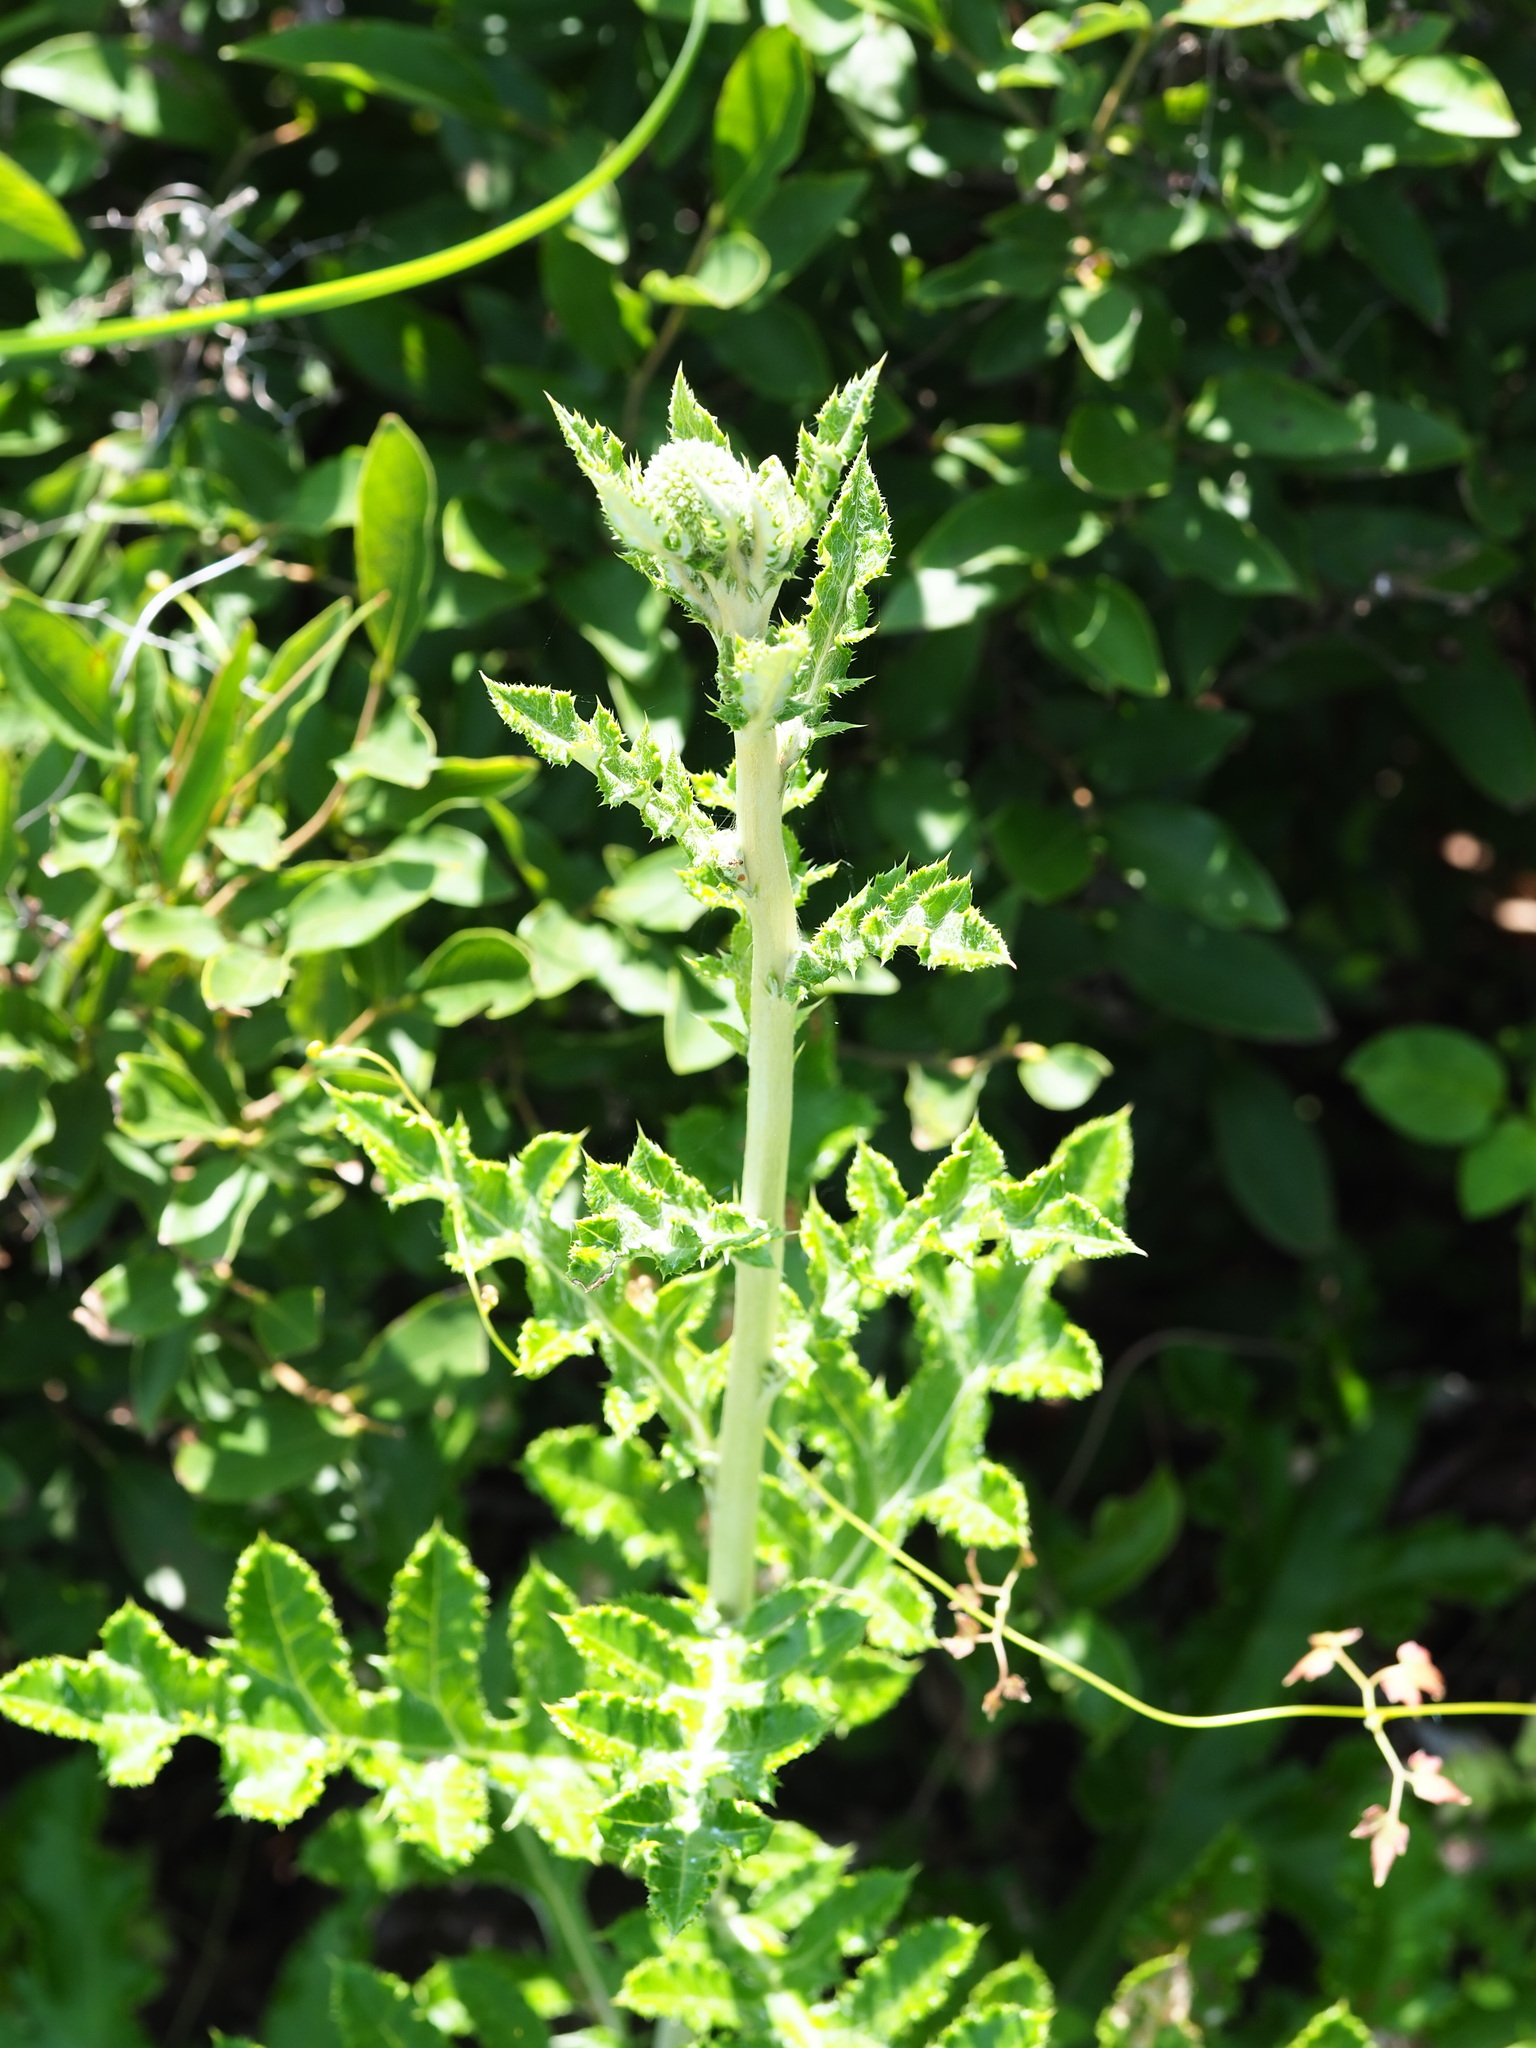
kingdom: Plantae
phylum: Tracheophyta
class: Magnoliopsida
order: Asterales
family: Asteraceae
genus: Echinops
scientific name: Echinops grijsii
